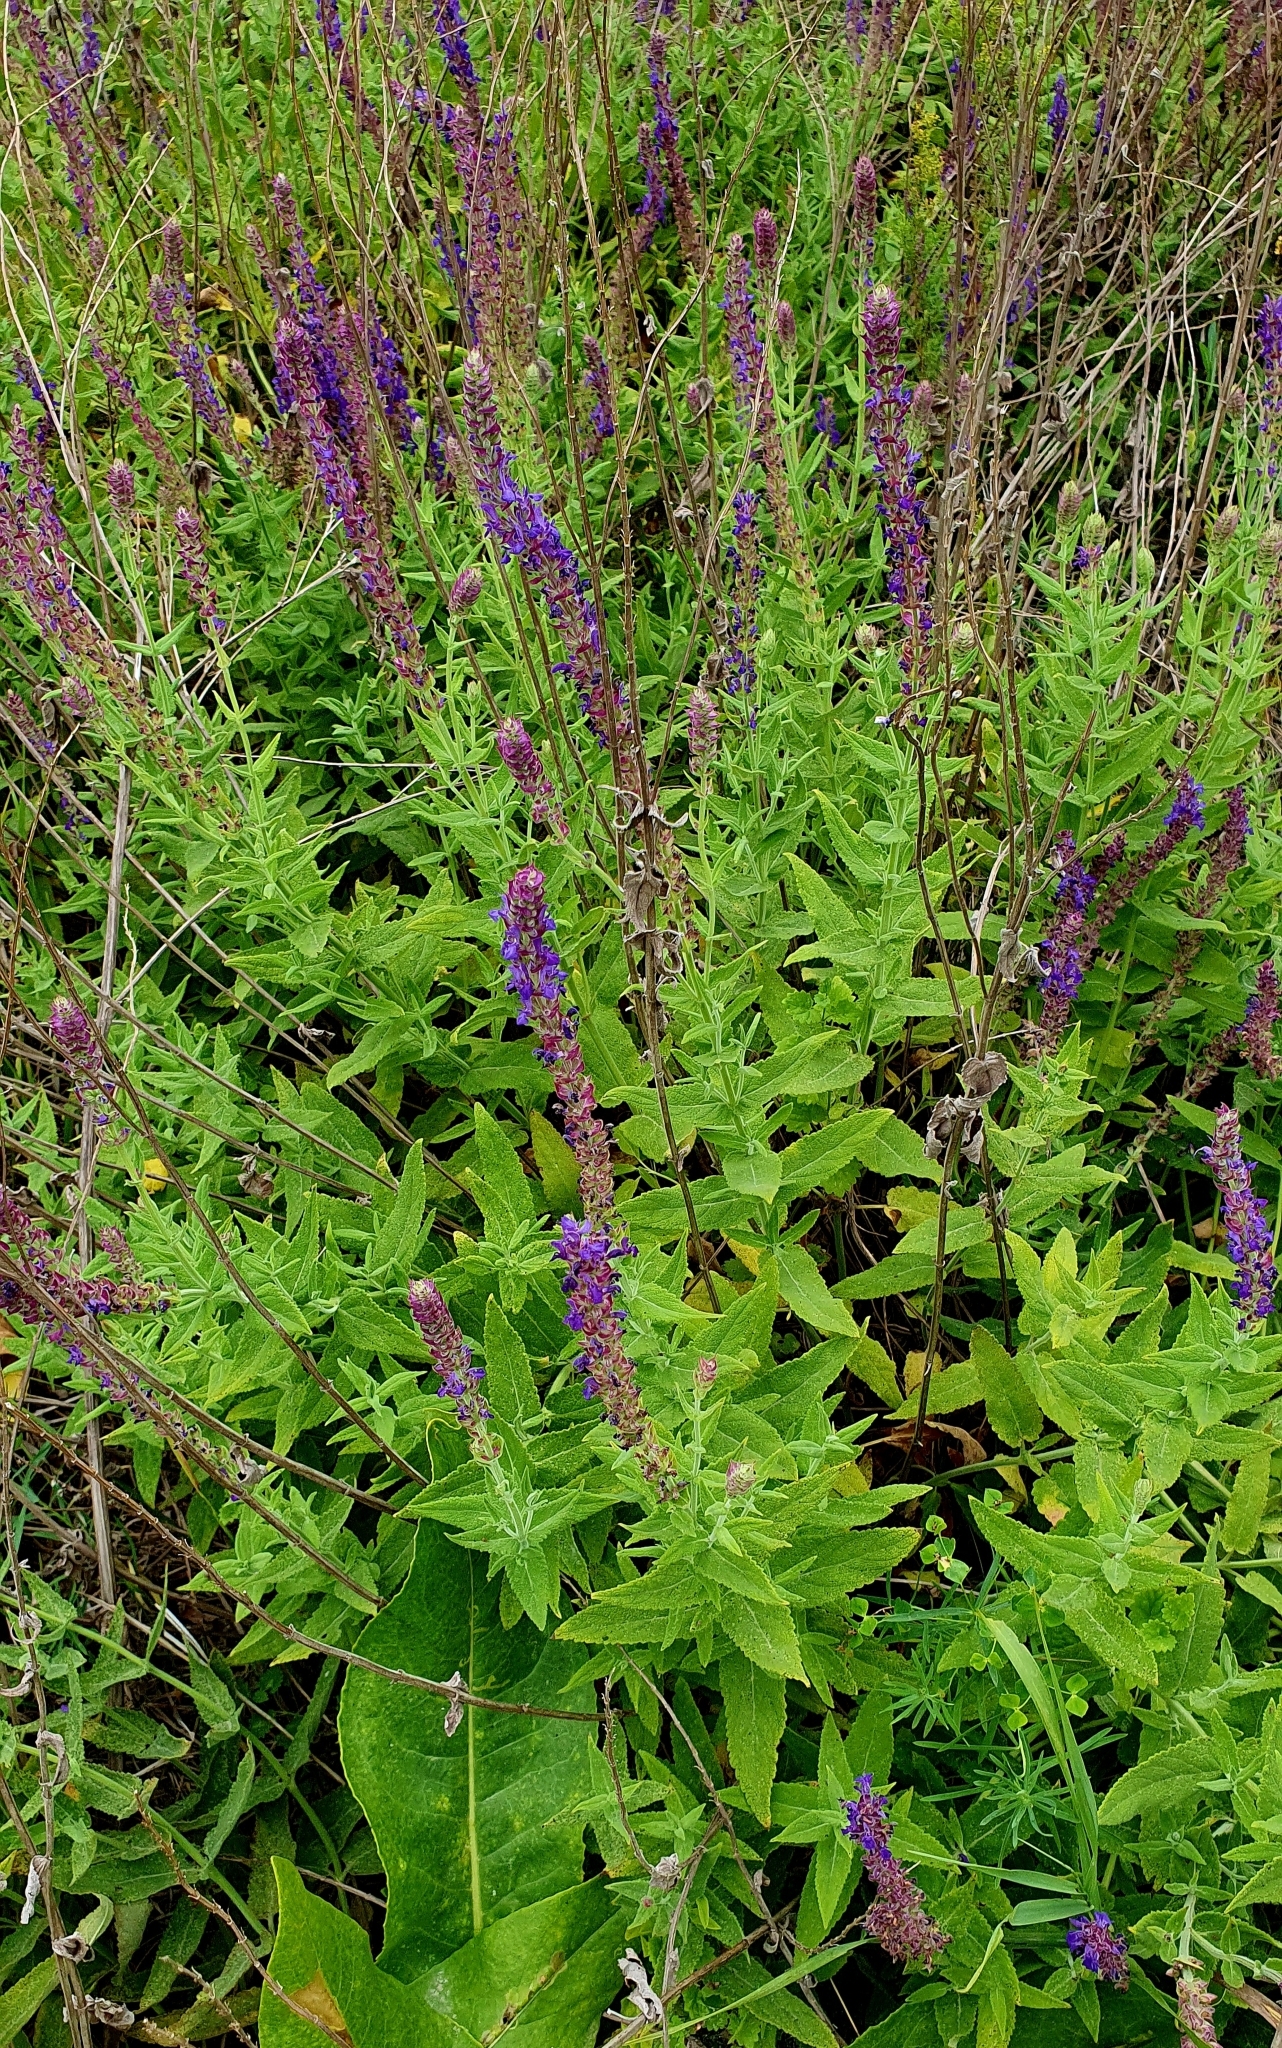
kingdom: Plantae
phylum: Tracheophyta
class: Magnoliopsida
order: Lamiales
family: Lamiaceae
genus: Salvia
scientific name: Salvia nemorosa
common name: Balkan clary
